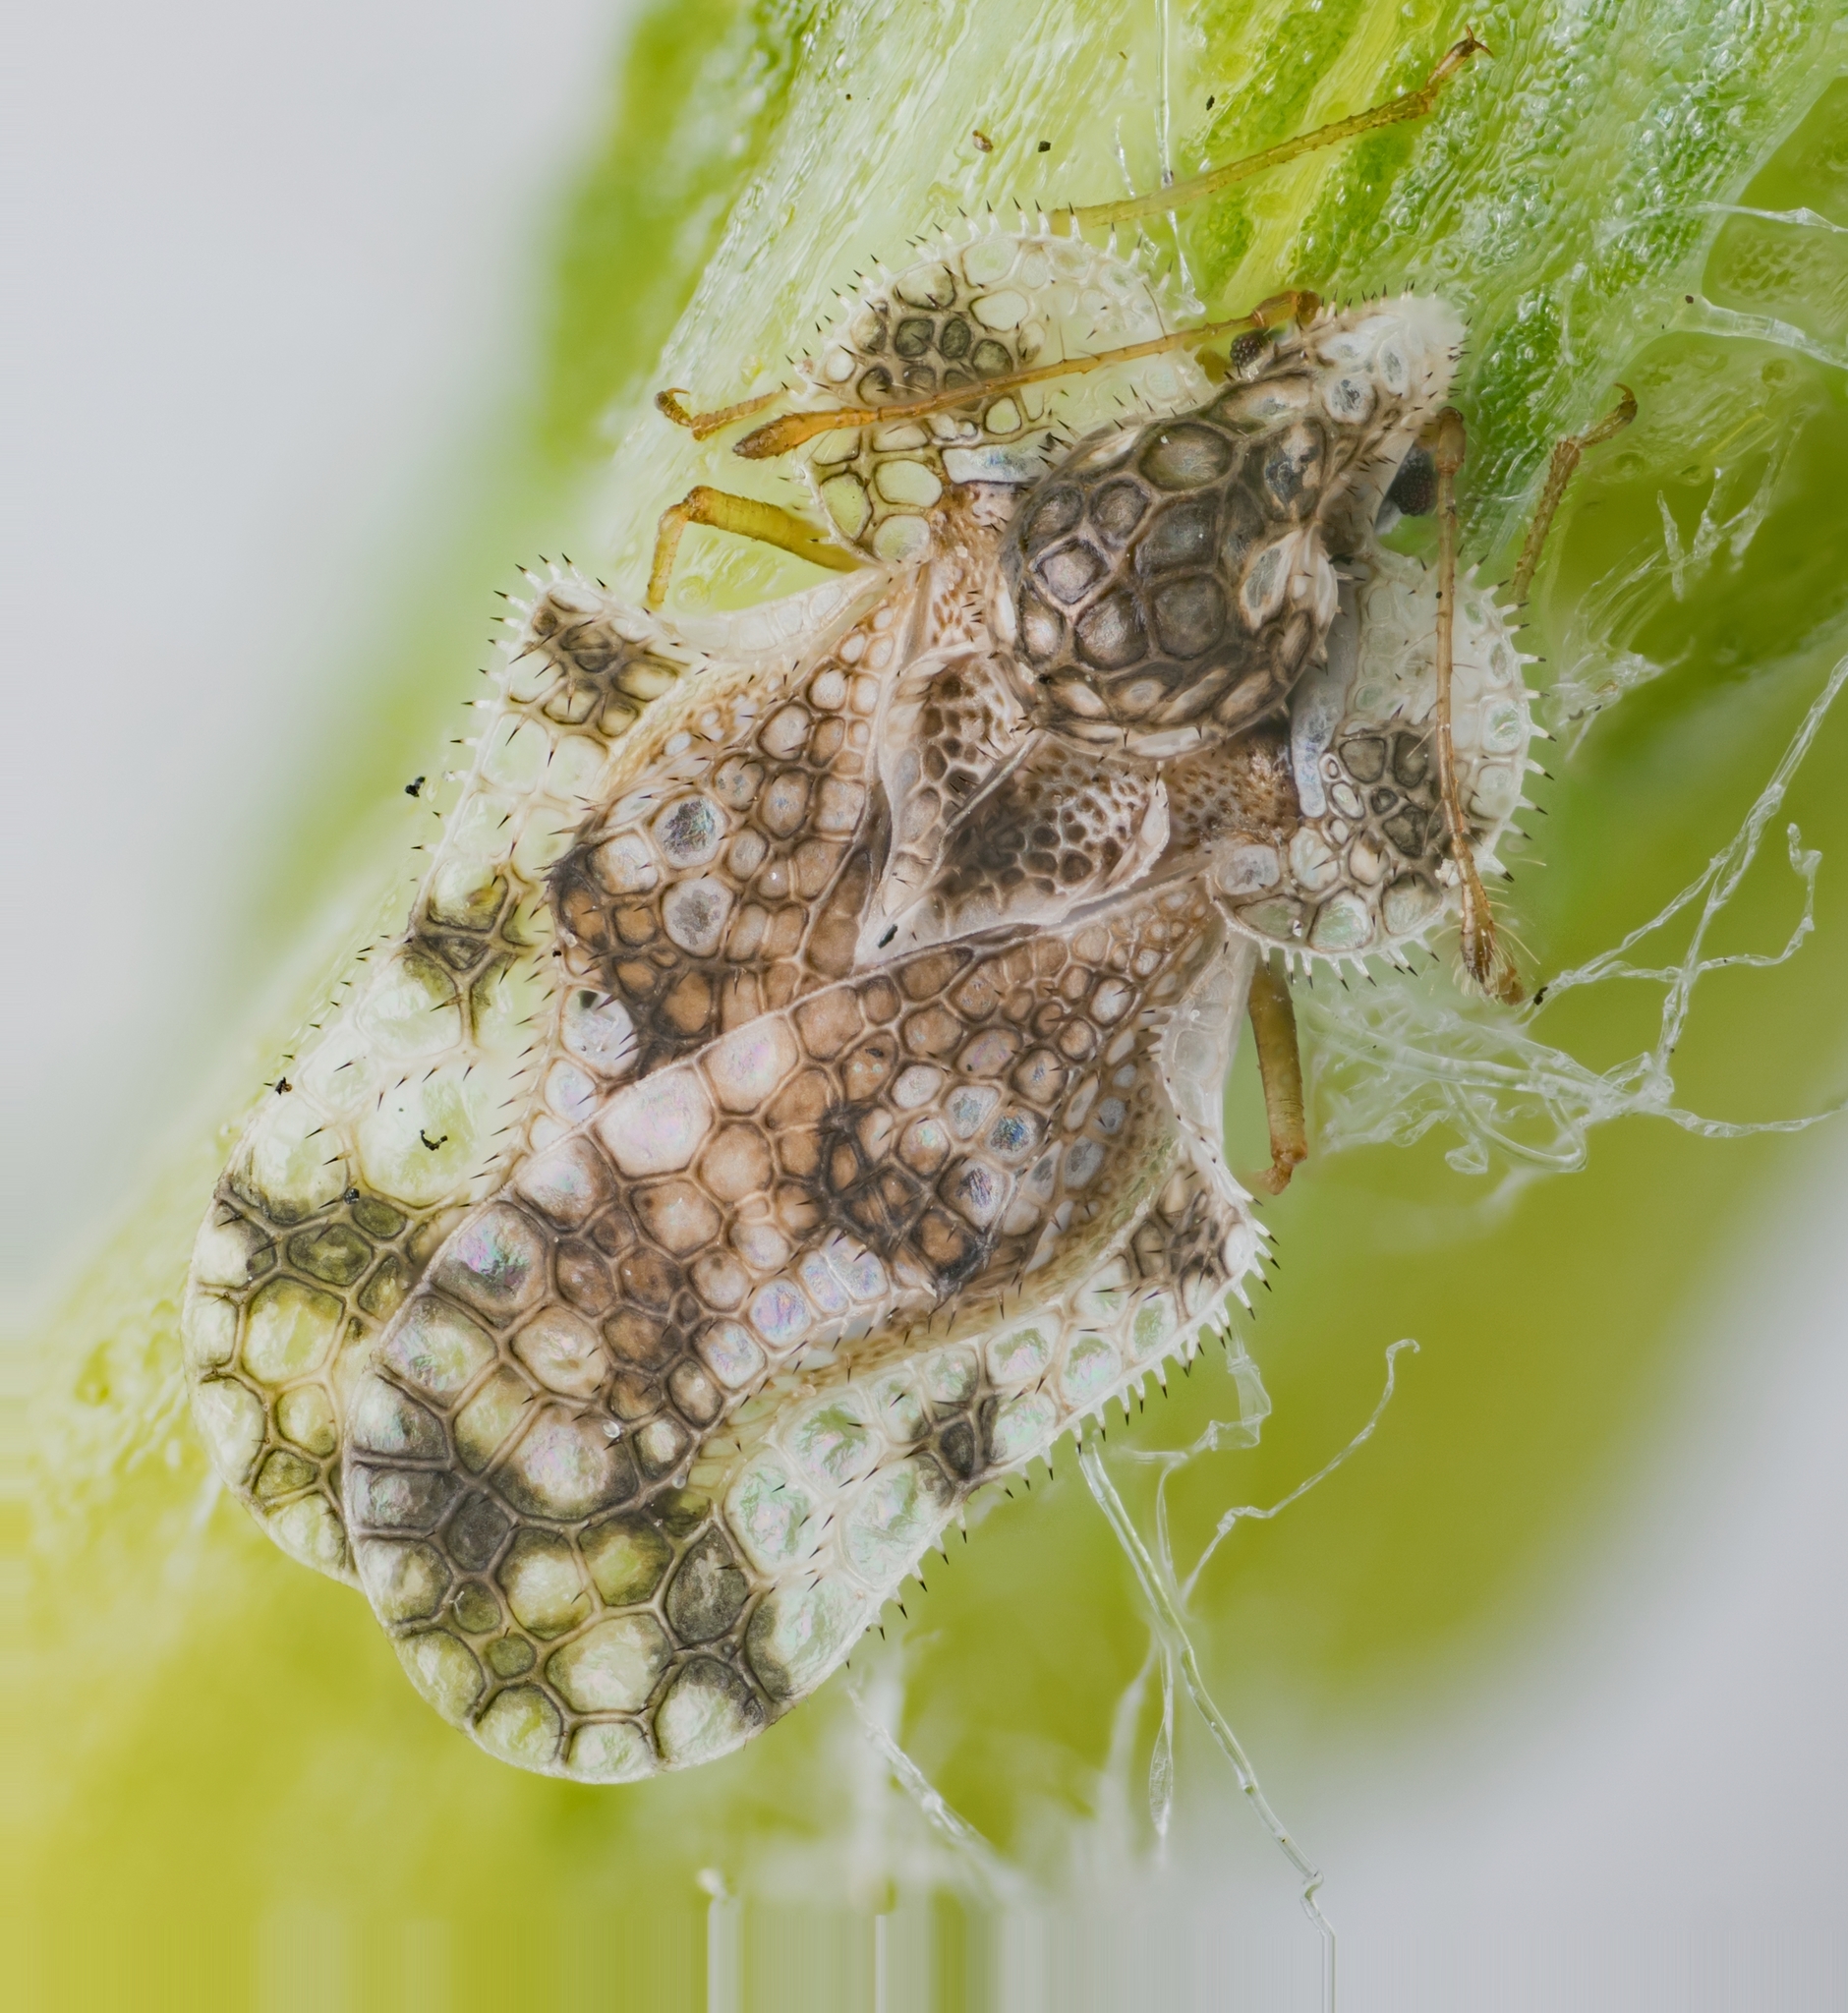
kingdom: Animalia
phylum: Arthropoda
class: Insecta
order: Hemiptera
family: Tingidae
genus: Corythucha
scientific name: Corythucha morrilli
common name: Morrill lace bug
